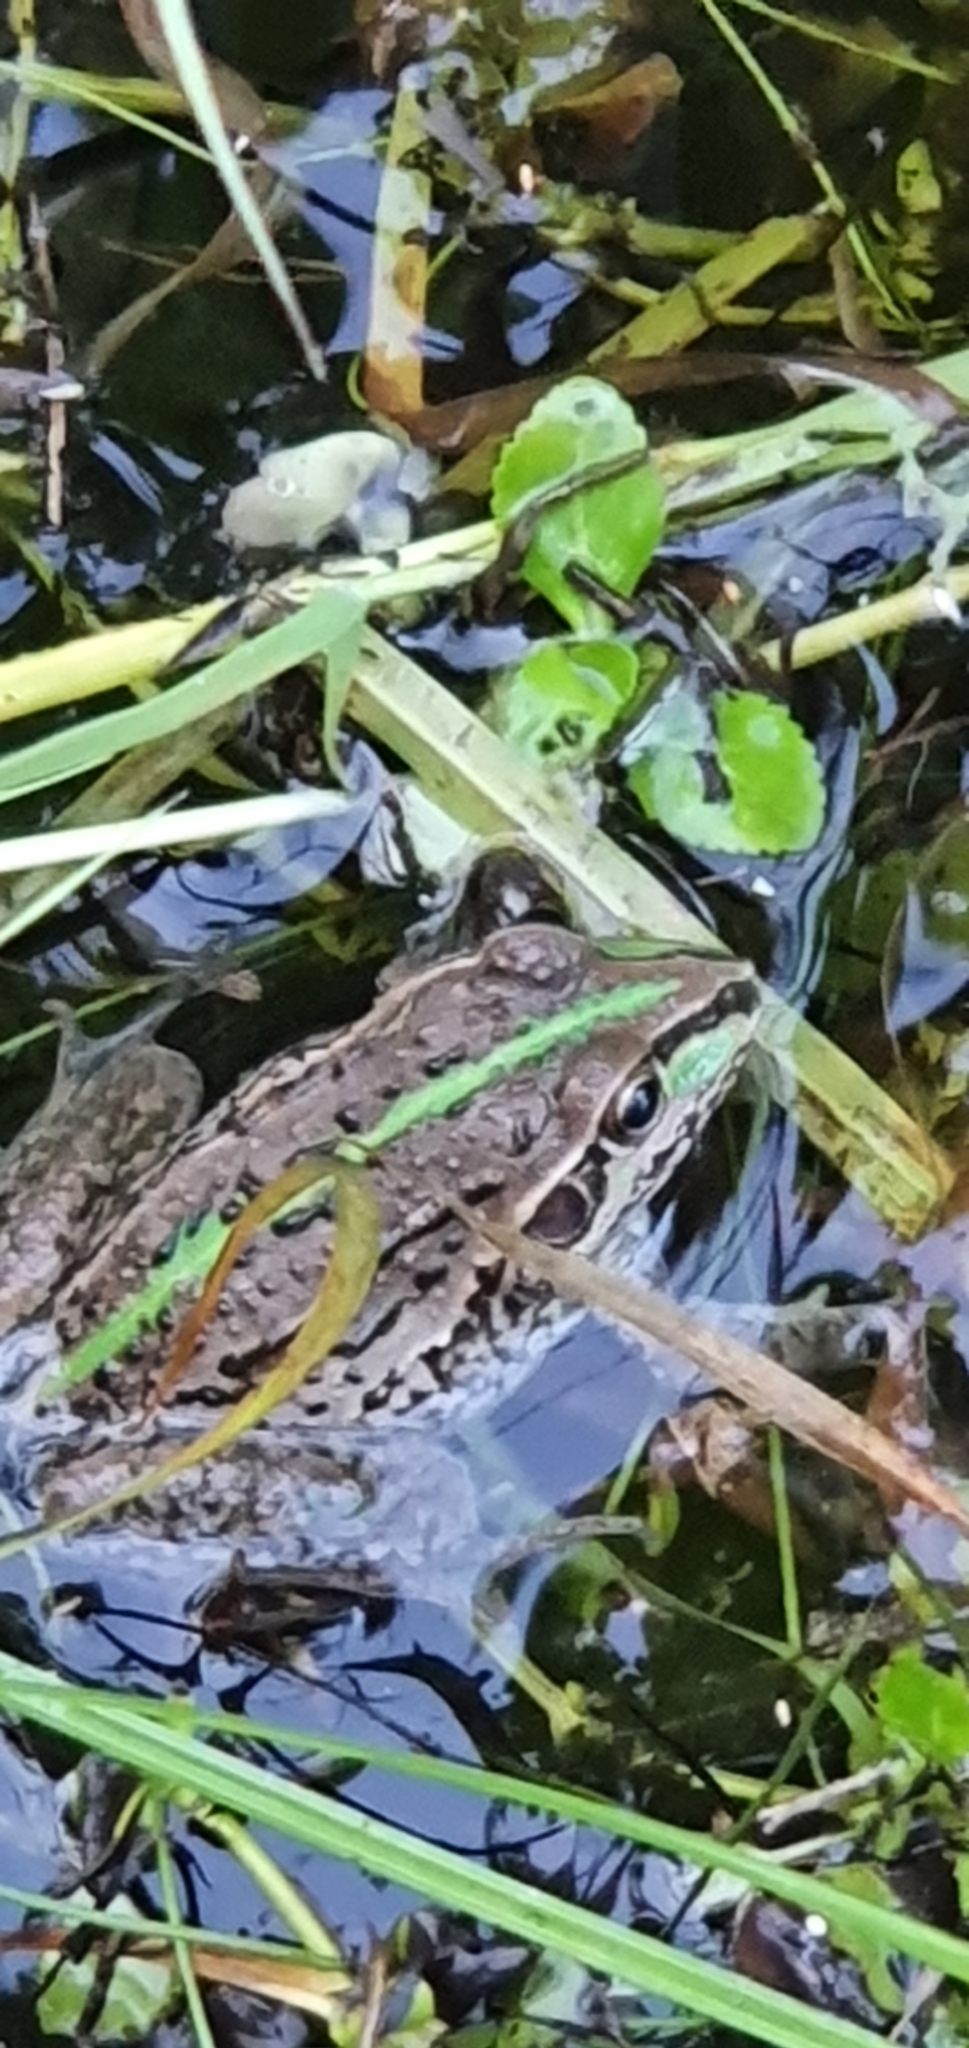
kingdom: Animalia
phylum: Chordata
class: Amphibia
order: Anura
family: Pelodryadidae
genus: Ranoidea
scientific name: Ranoidea alboguttata
